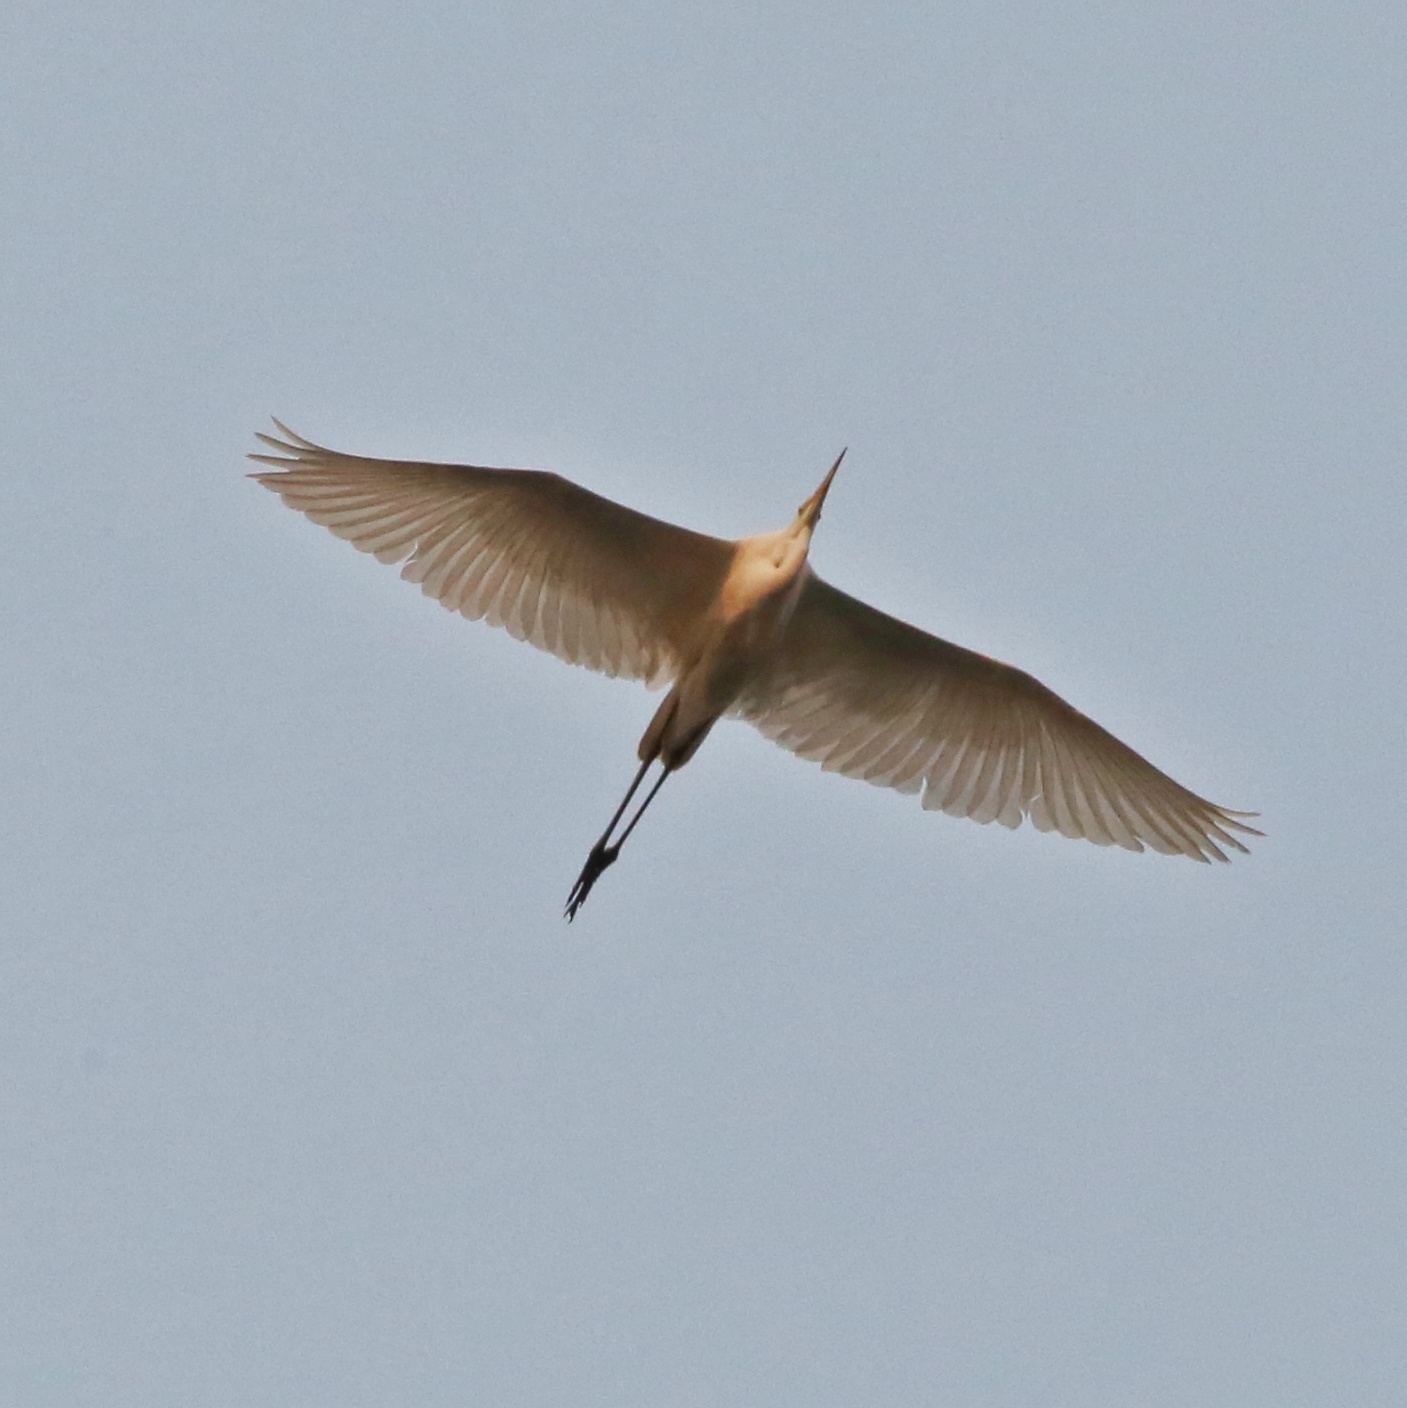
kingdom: Animalia
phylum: Chordata
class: Aves
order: Pelecaniformes
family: Ardeidae
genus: Ardea
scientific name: Ardea alba
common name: Great egret
